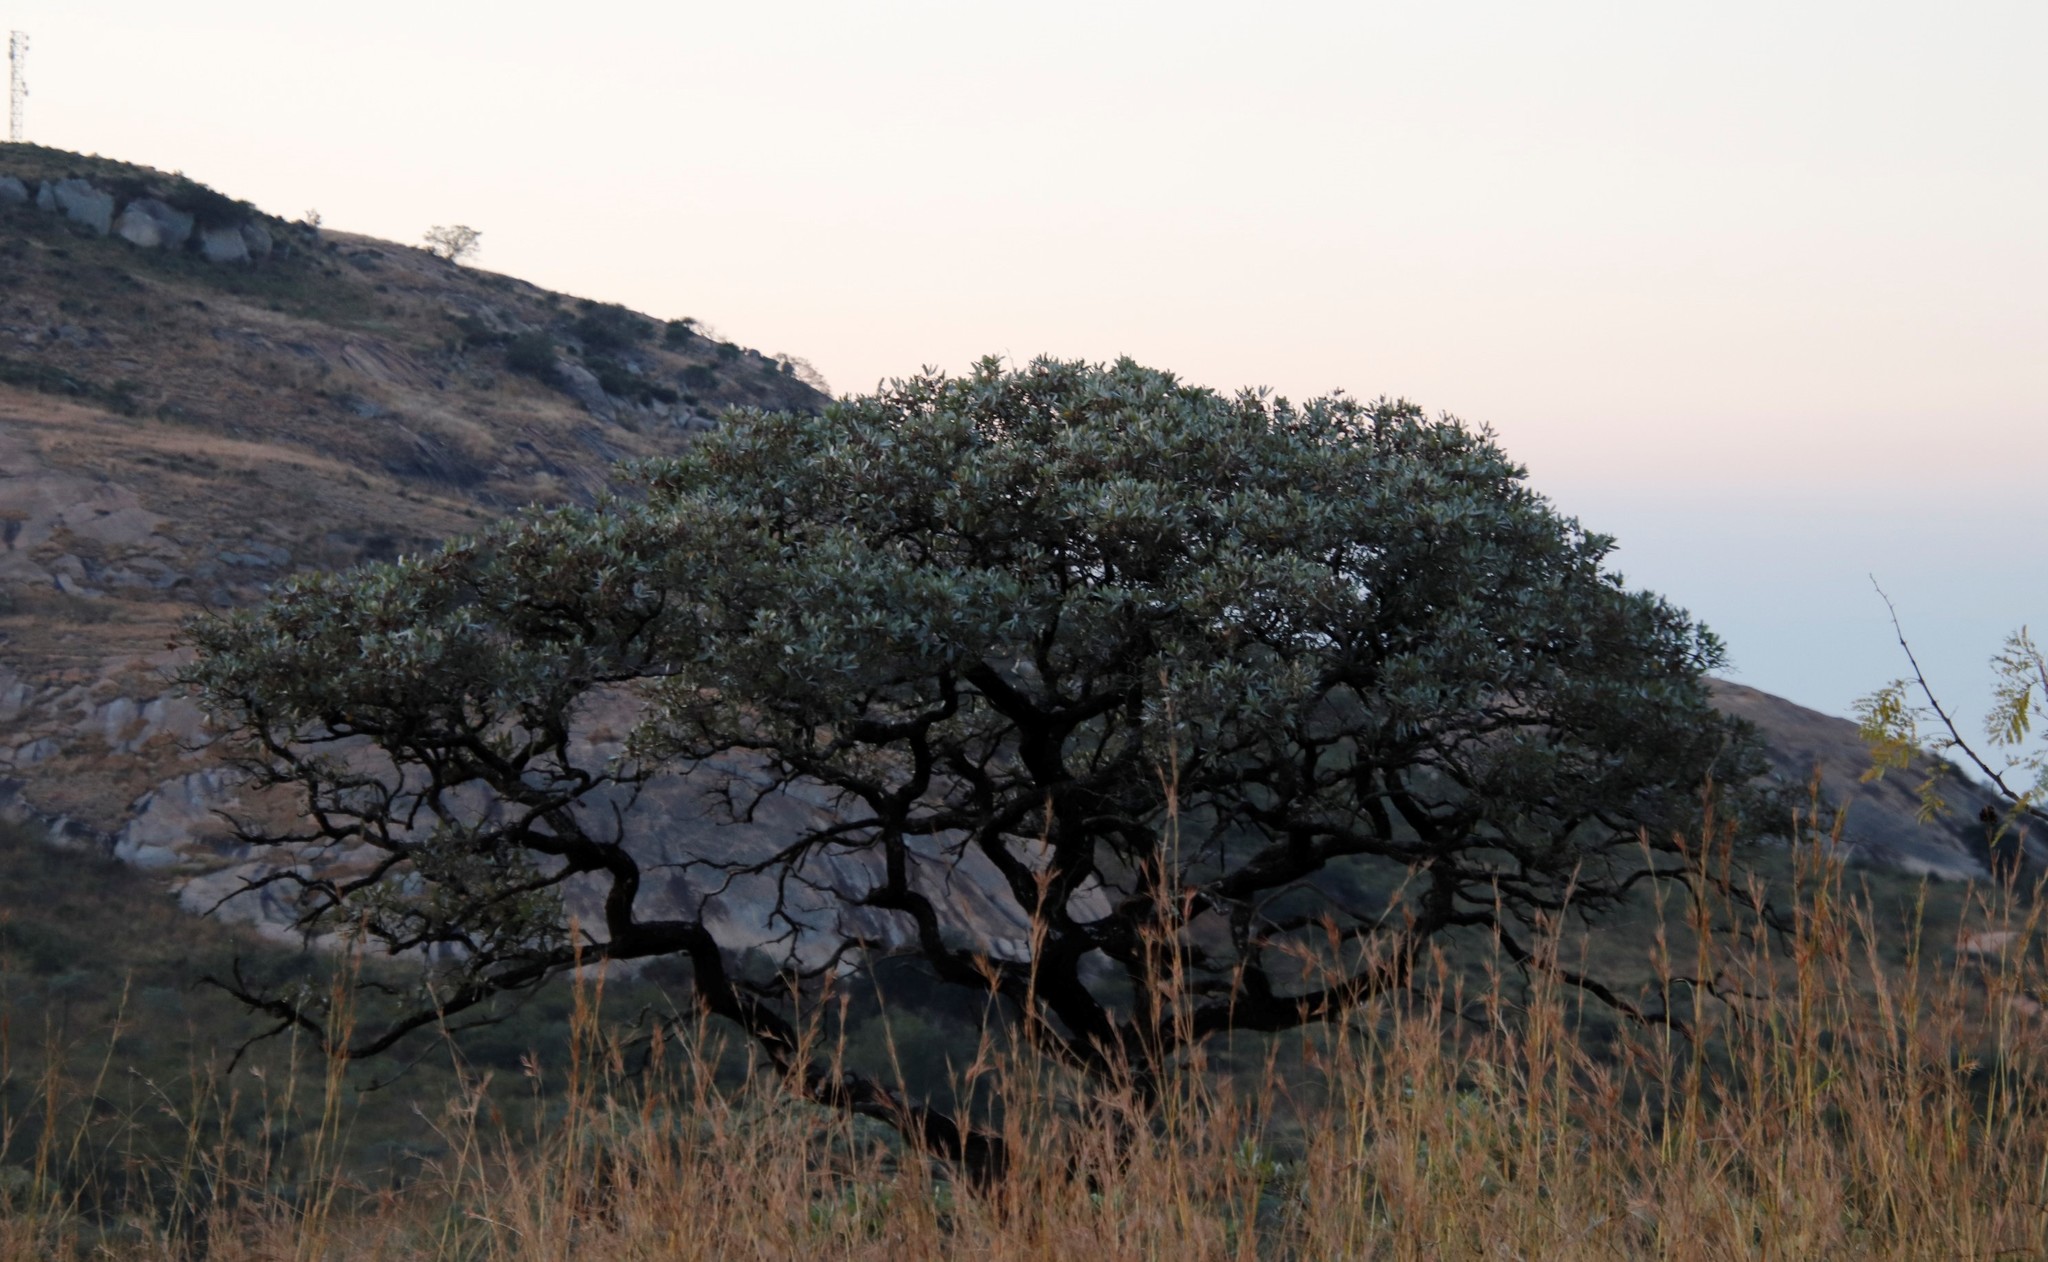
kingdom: Plantae
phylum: Tracheophyta
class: Magnoliopsida
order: Myrtales
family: Combretaceae
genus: Terminalia
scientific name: Terminalia sericea
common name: Clusterleaf
